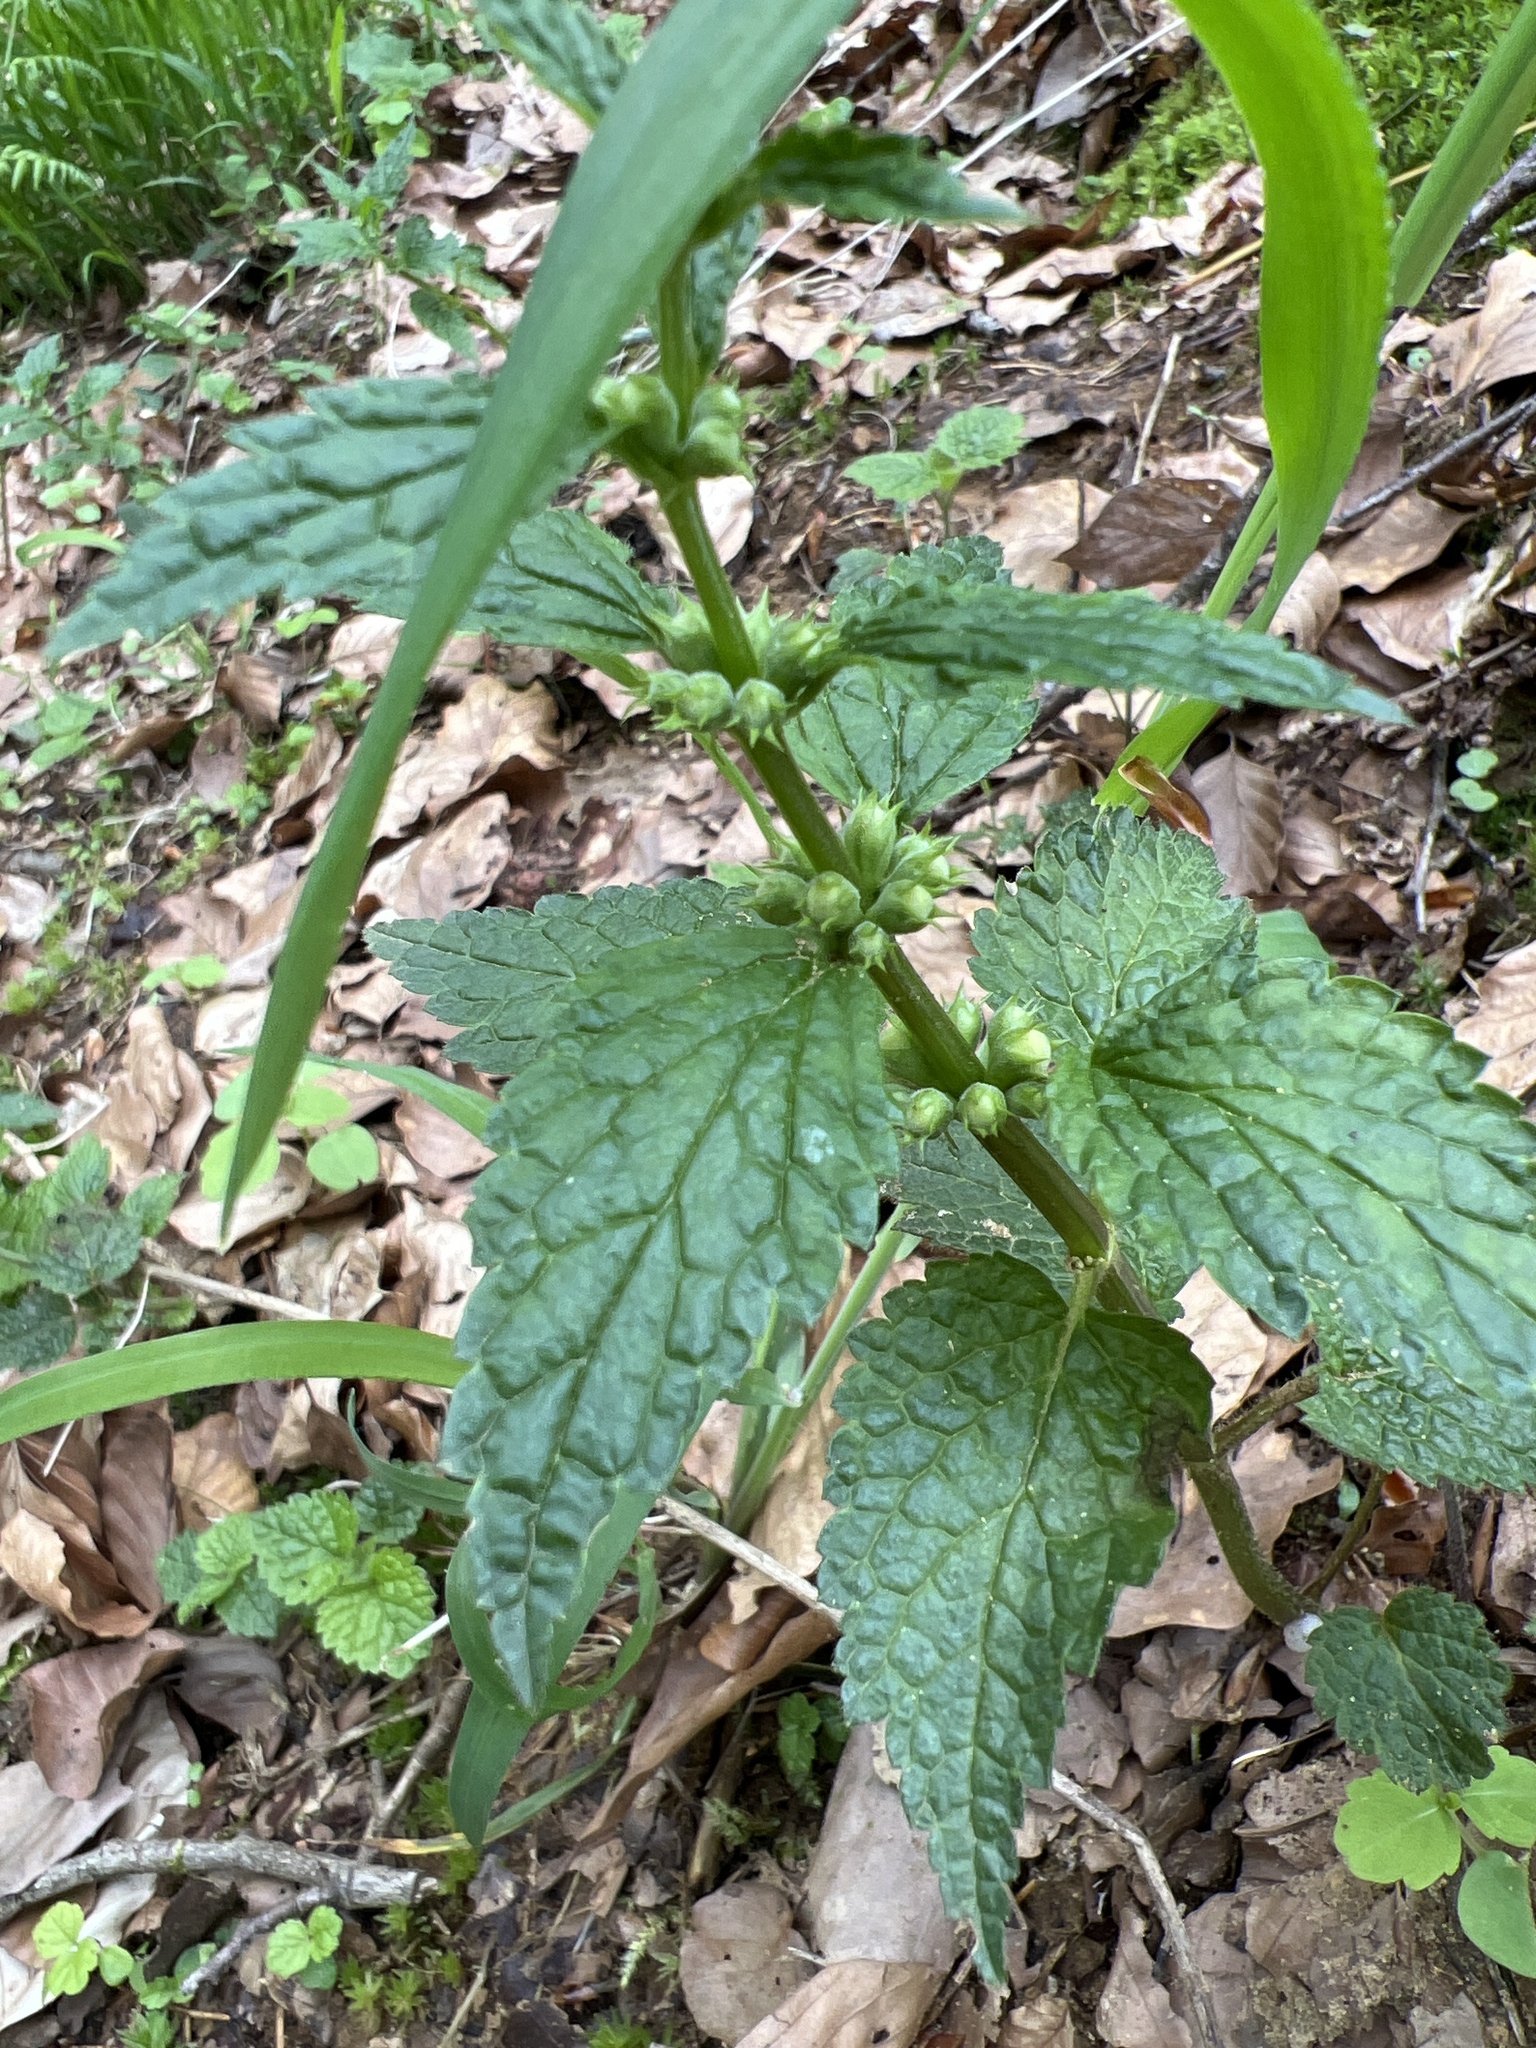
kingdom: Plantae
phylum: Tracheophyta
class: Magnoliopsida
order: Lamiales
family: Lamiaceae
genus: Lamium
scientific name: Lamium galeobdolon
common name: Yellow archangel
